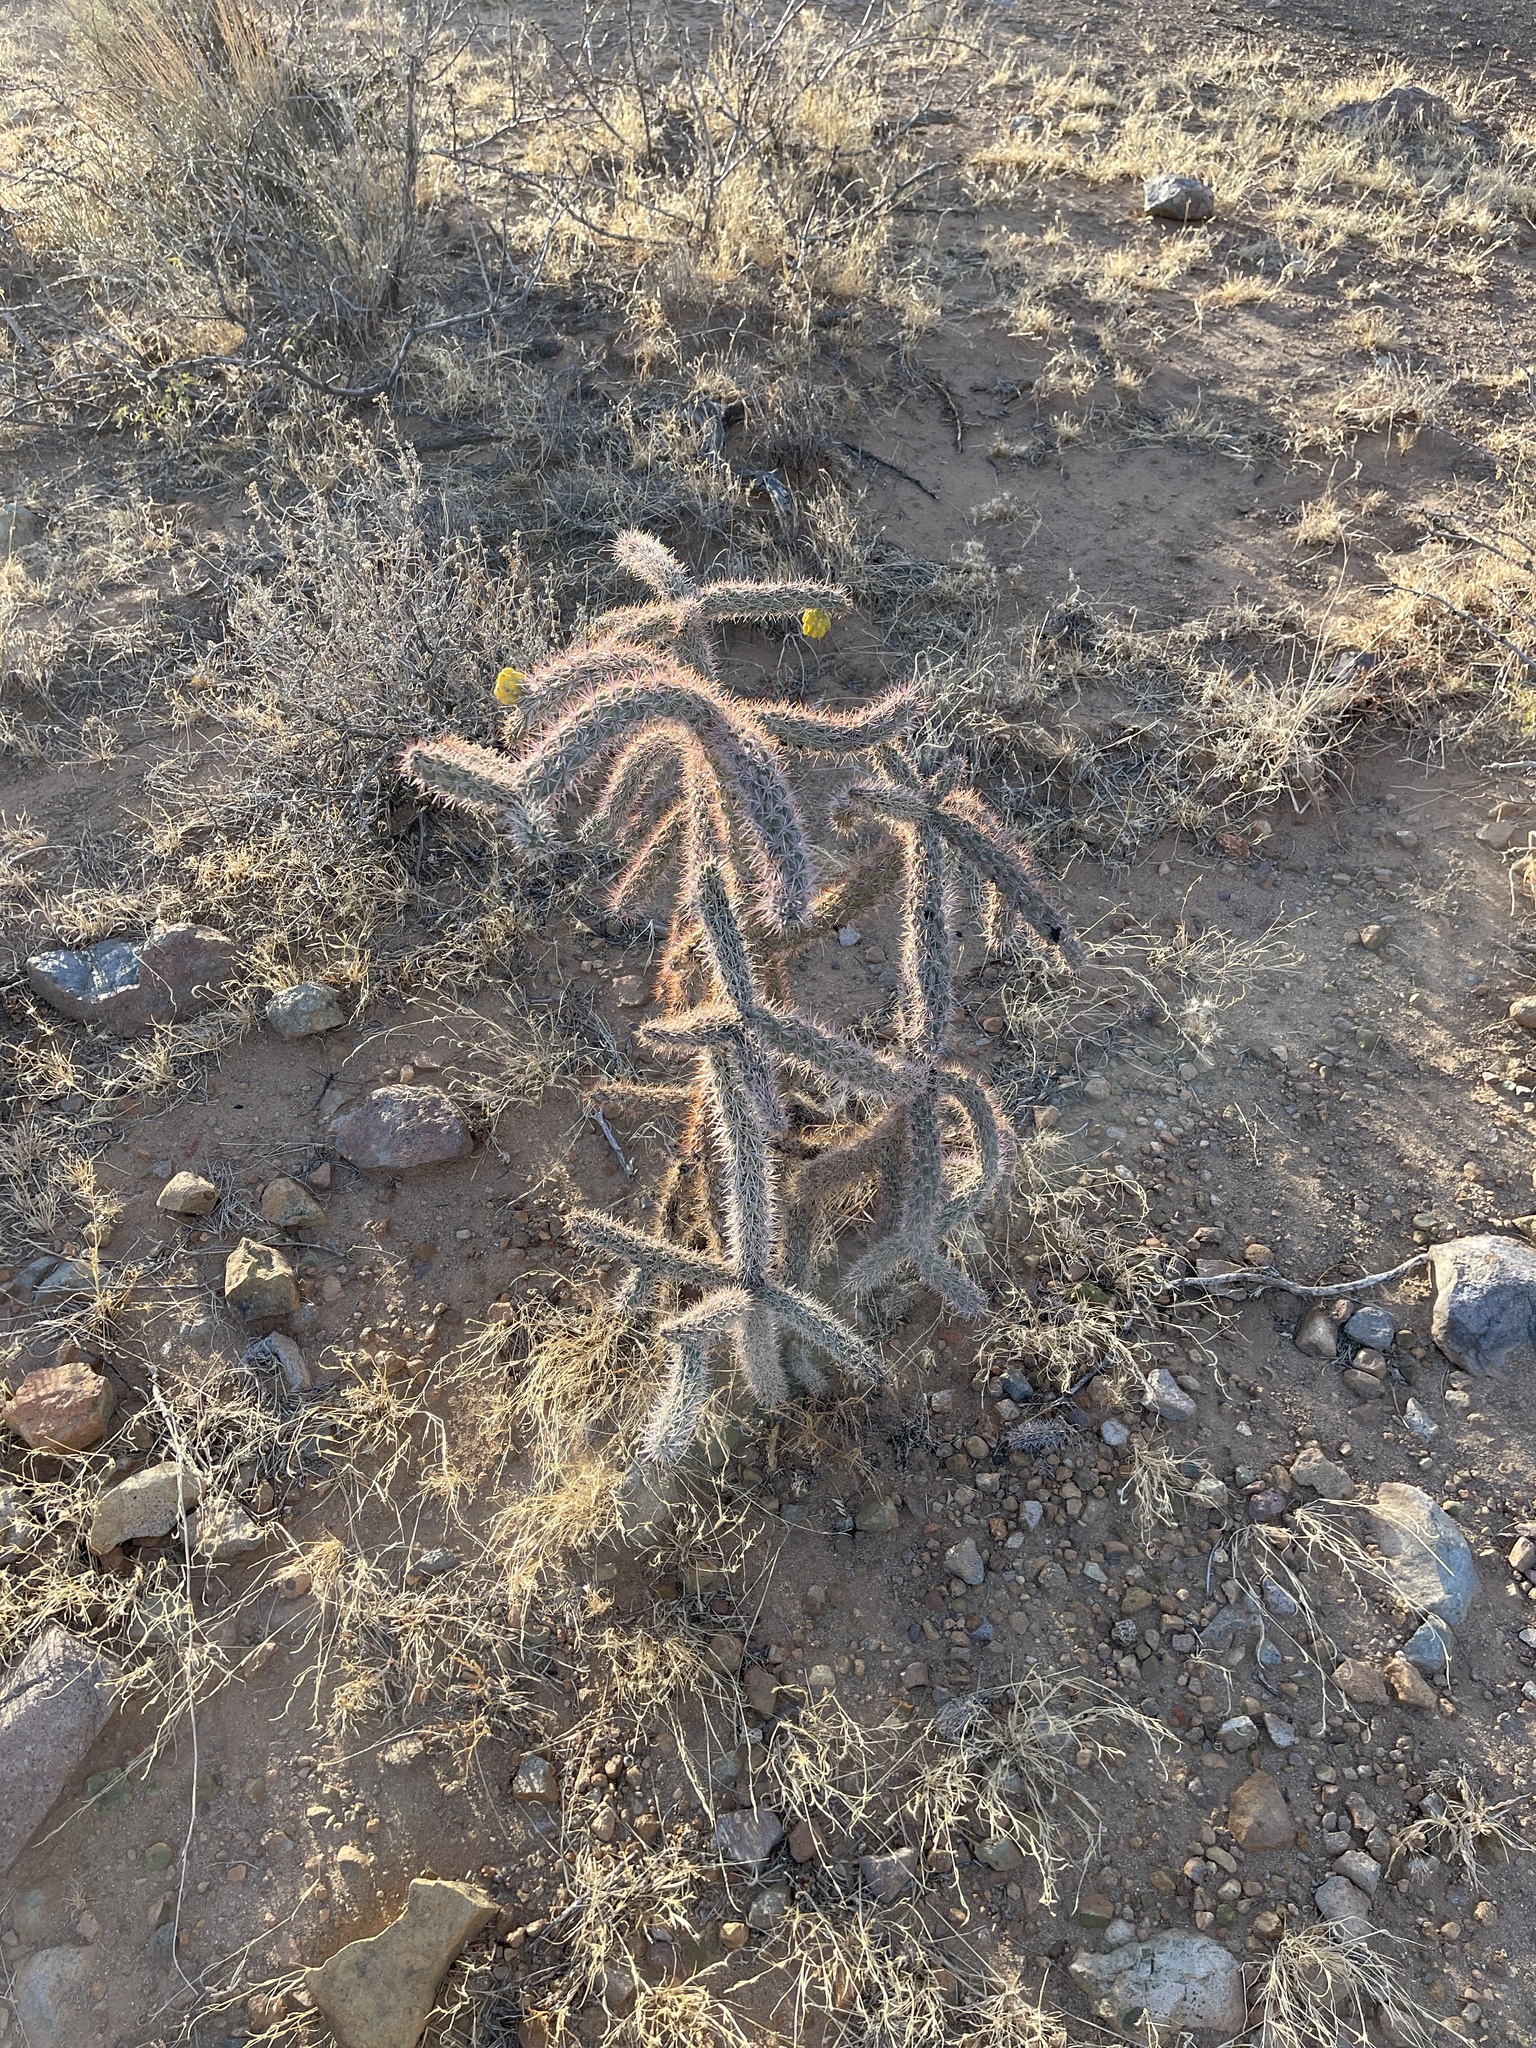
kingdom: Plantae
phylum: Tracheophyta
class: Magnoliopsida
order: Caryophyllales
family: Cactaceae
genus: Cylindropuntia
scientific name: Cylindropuntia imbricata
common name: Candelabrum cactus
